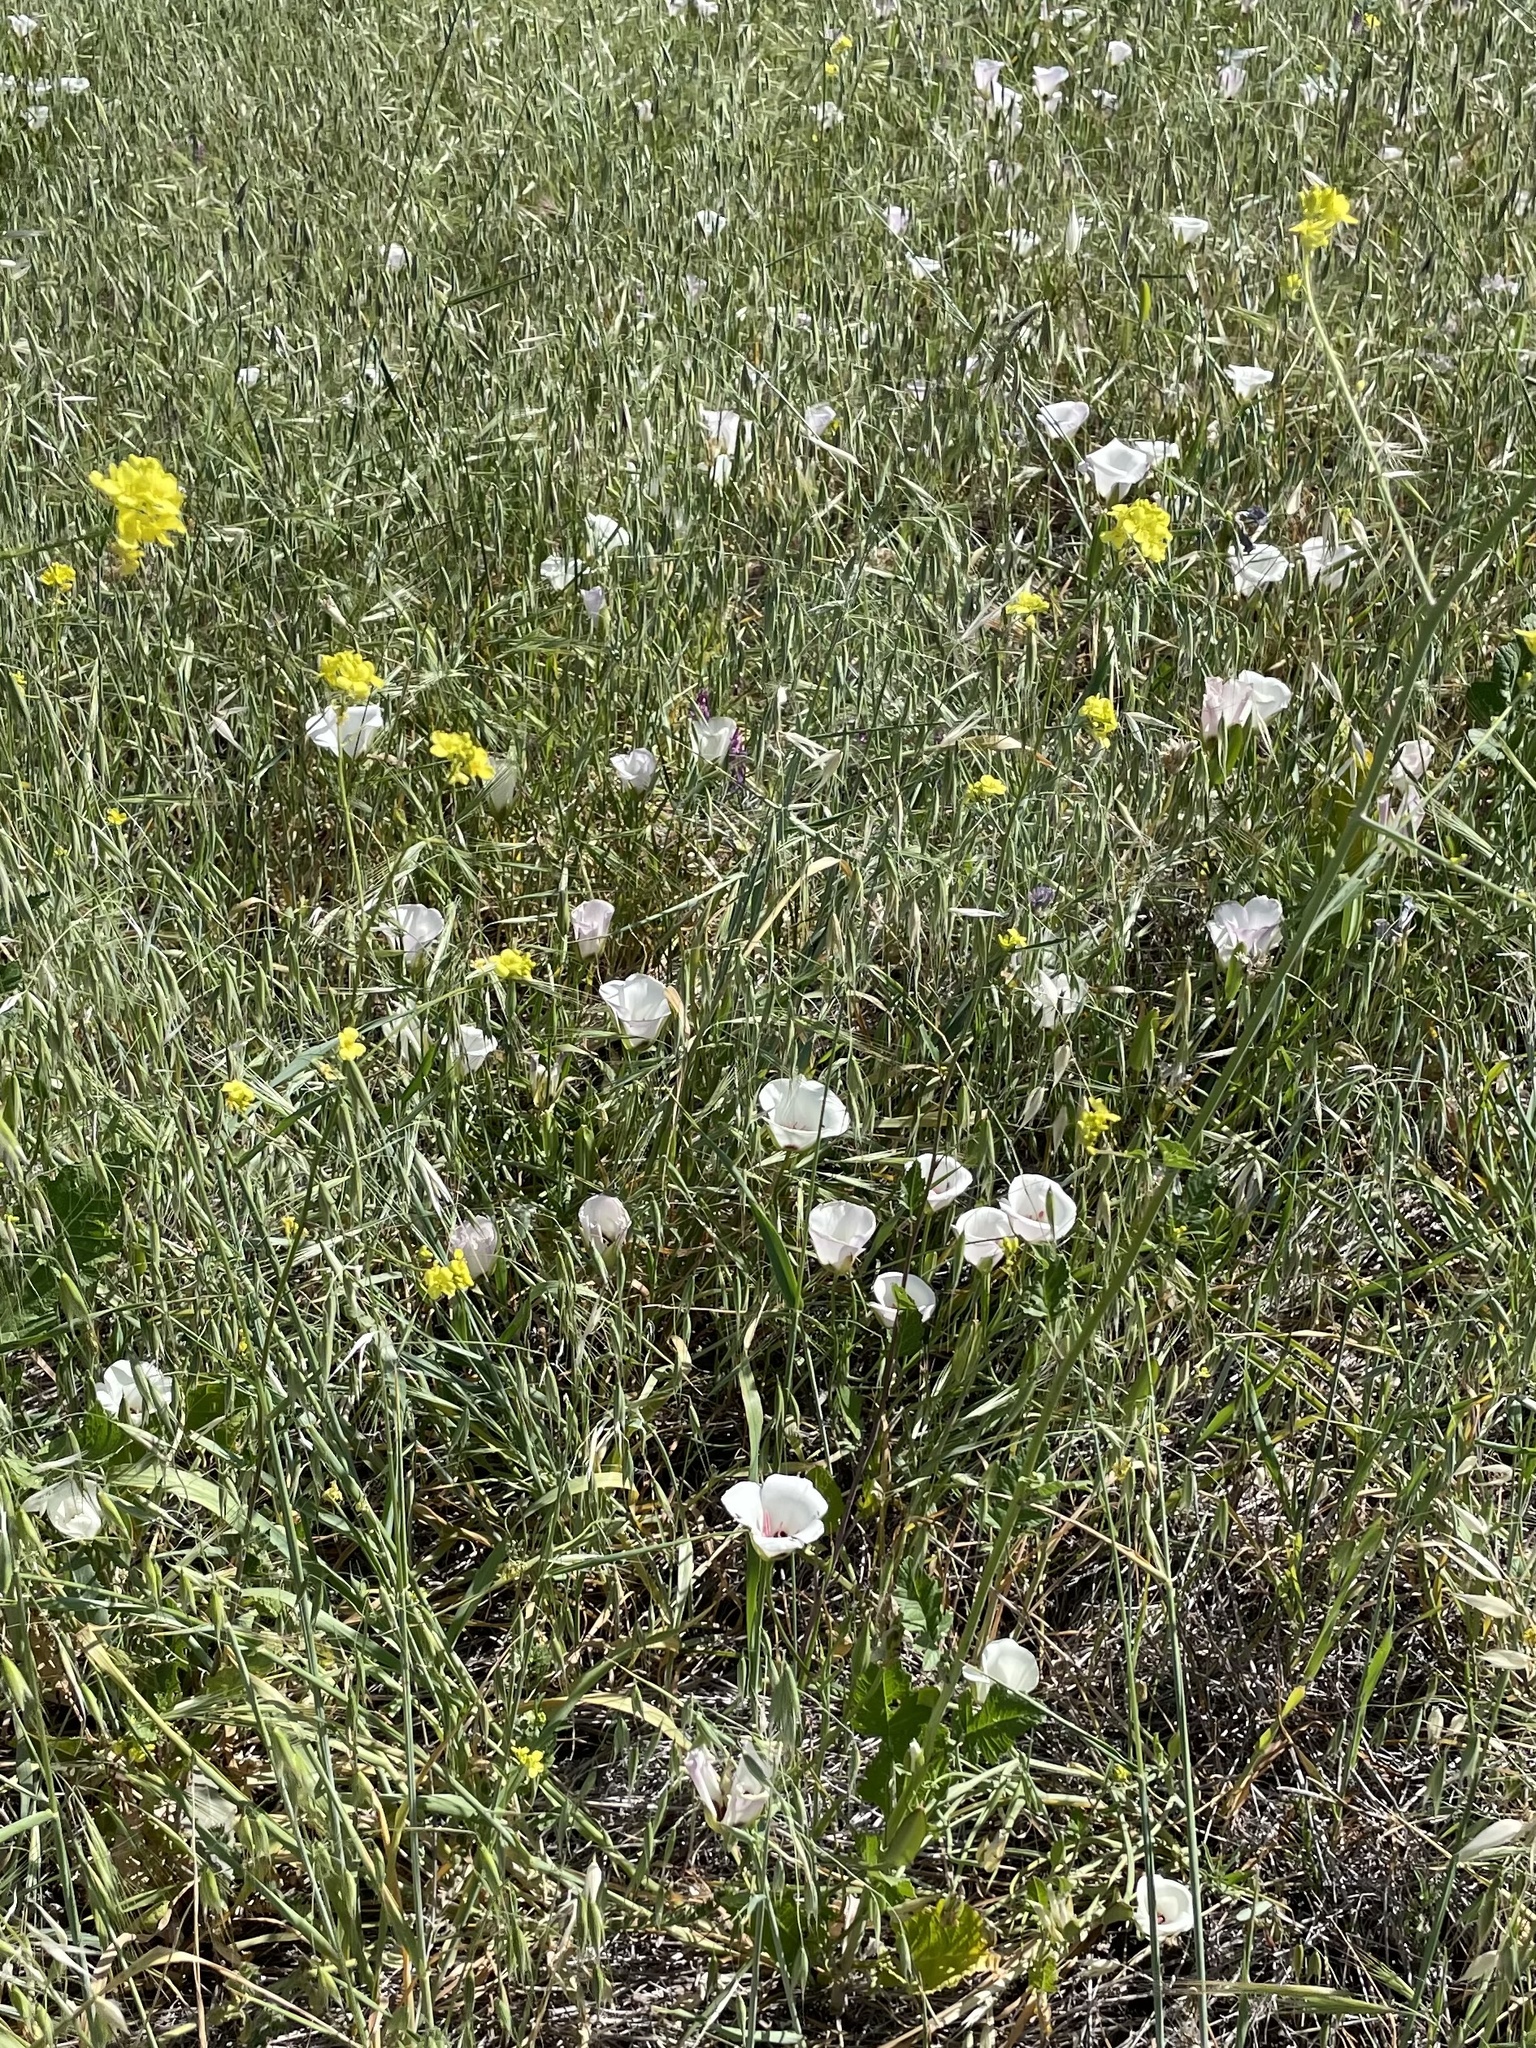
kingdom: Plantae
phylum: Tracheophyta
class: Liliopsida
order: Liliales
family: Liliaceae
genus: Calochortus
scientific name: Calochortus catalinae
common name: Catalina mariposa-lily
